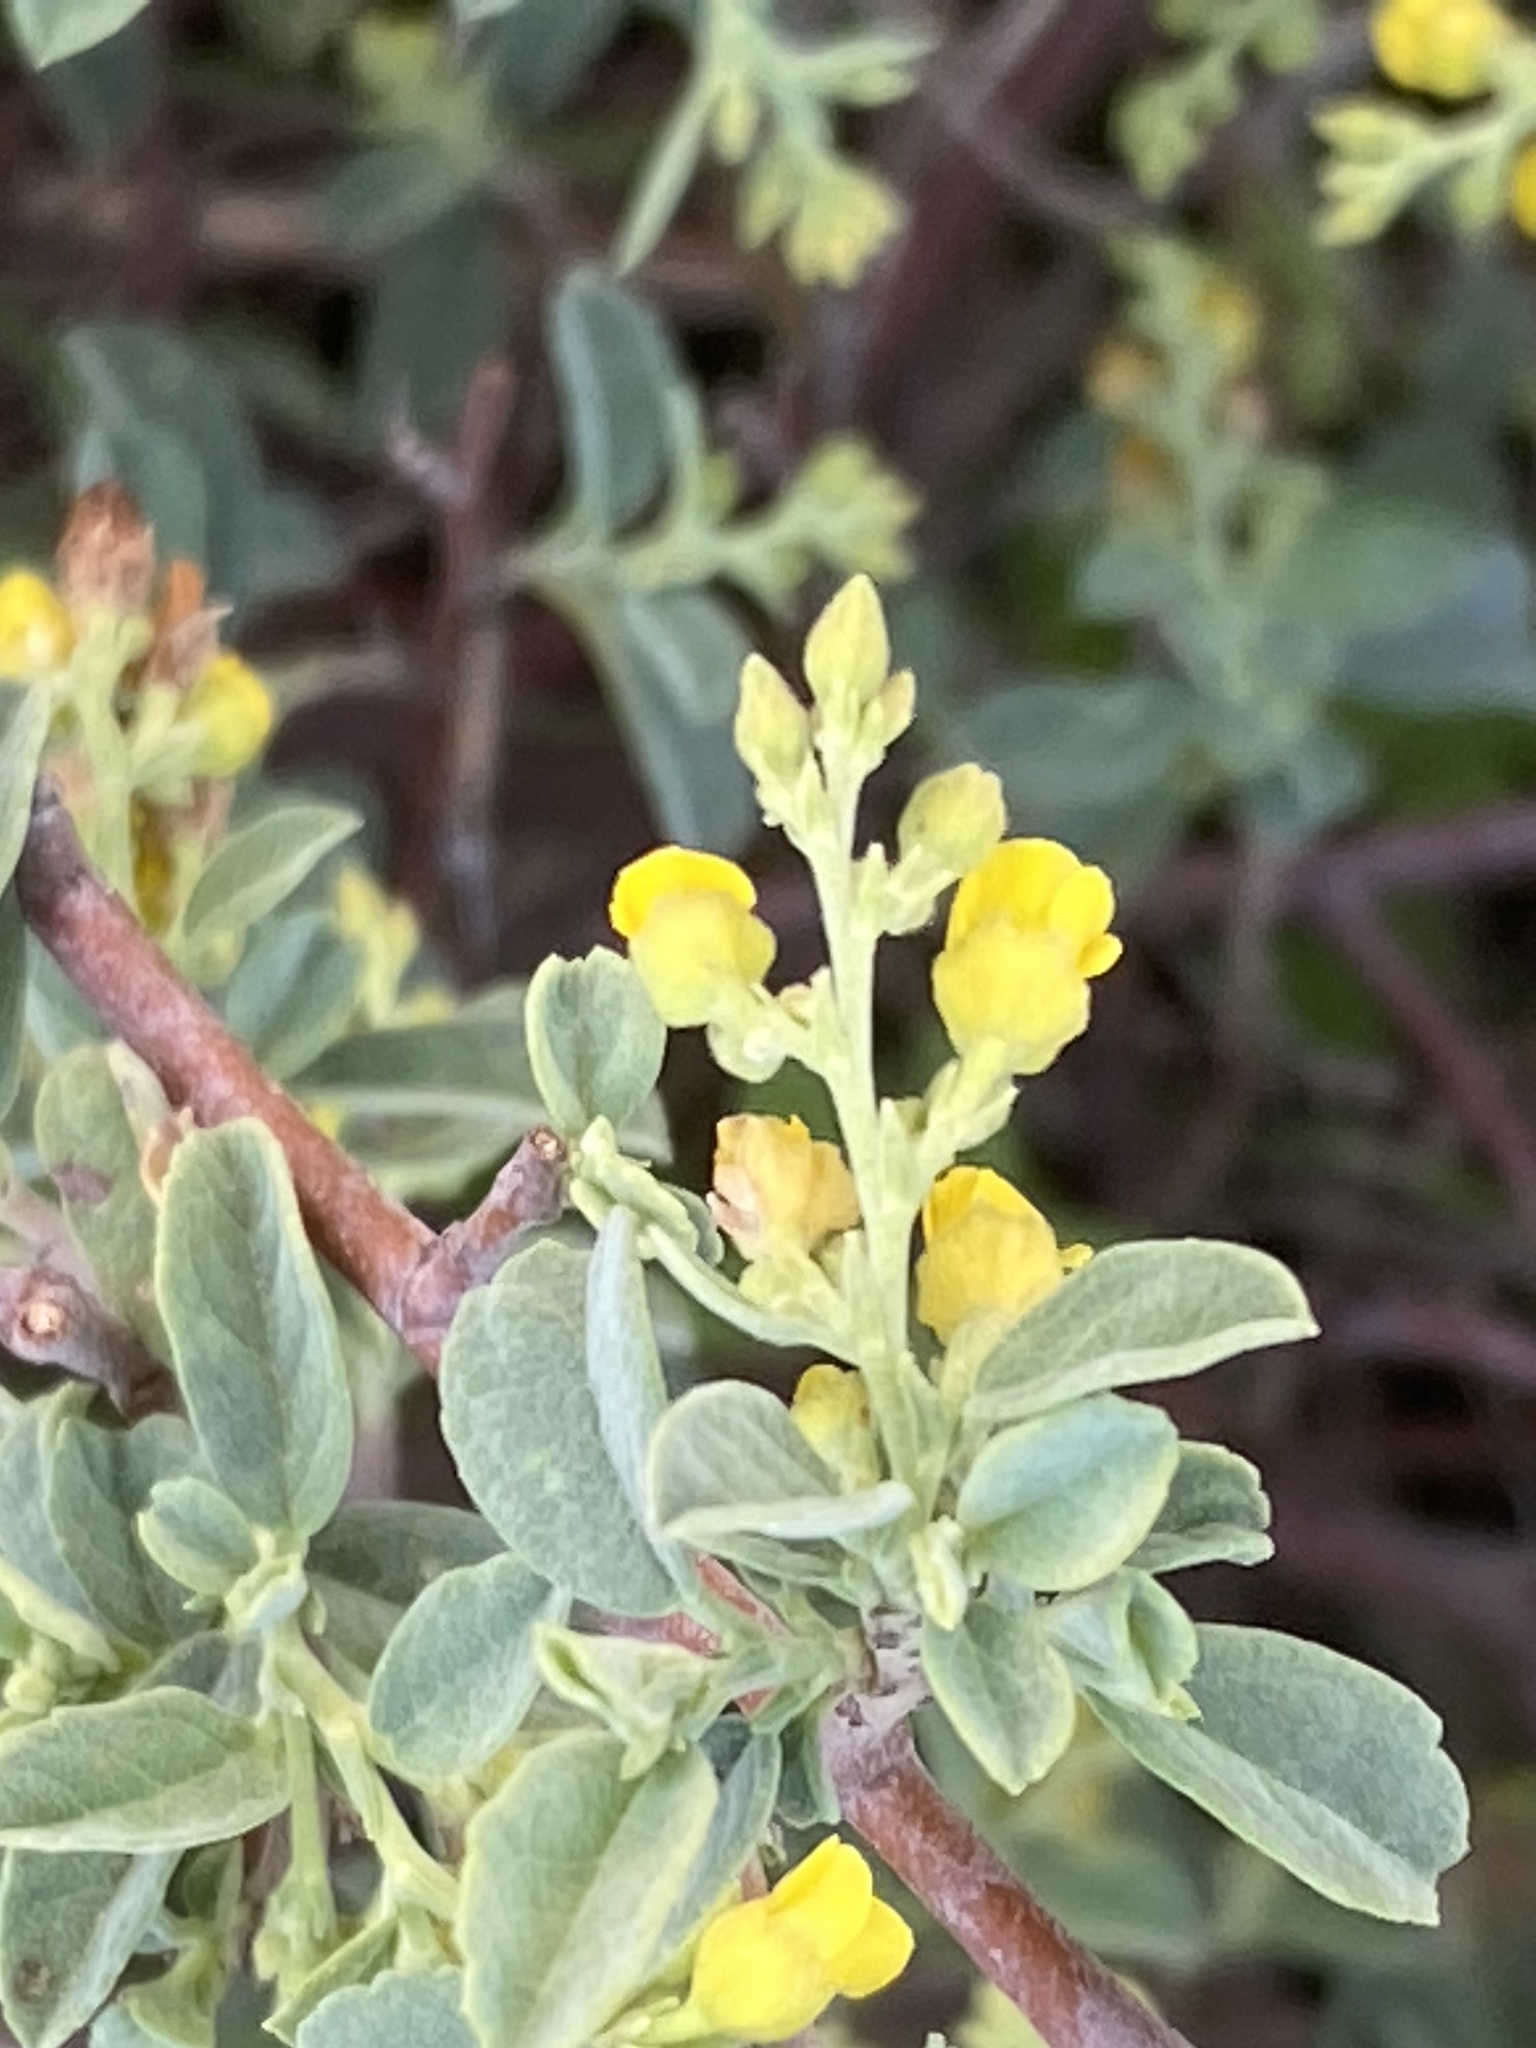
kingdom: Plantae
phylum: Tracheophyta
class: Magnoliopsida
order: Malvales
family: Malvaceae
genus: Hermannia
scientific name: Hermannia holosericea
